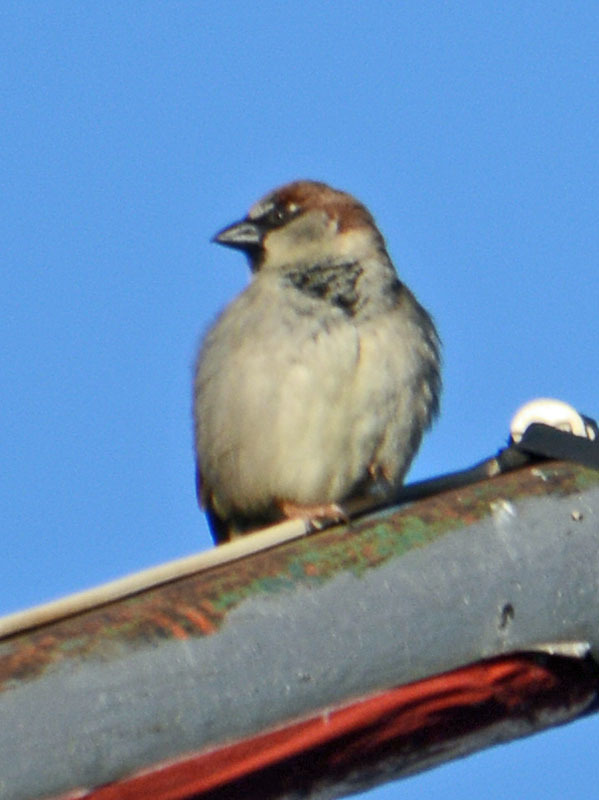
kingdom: Animalia
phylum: Chordata
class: Aves
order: Passeriformes
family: Passeridae
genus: Passer
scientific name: Passer domesticus
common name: House sparrow
